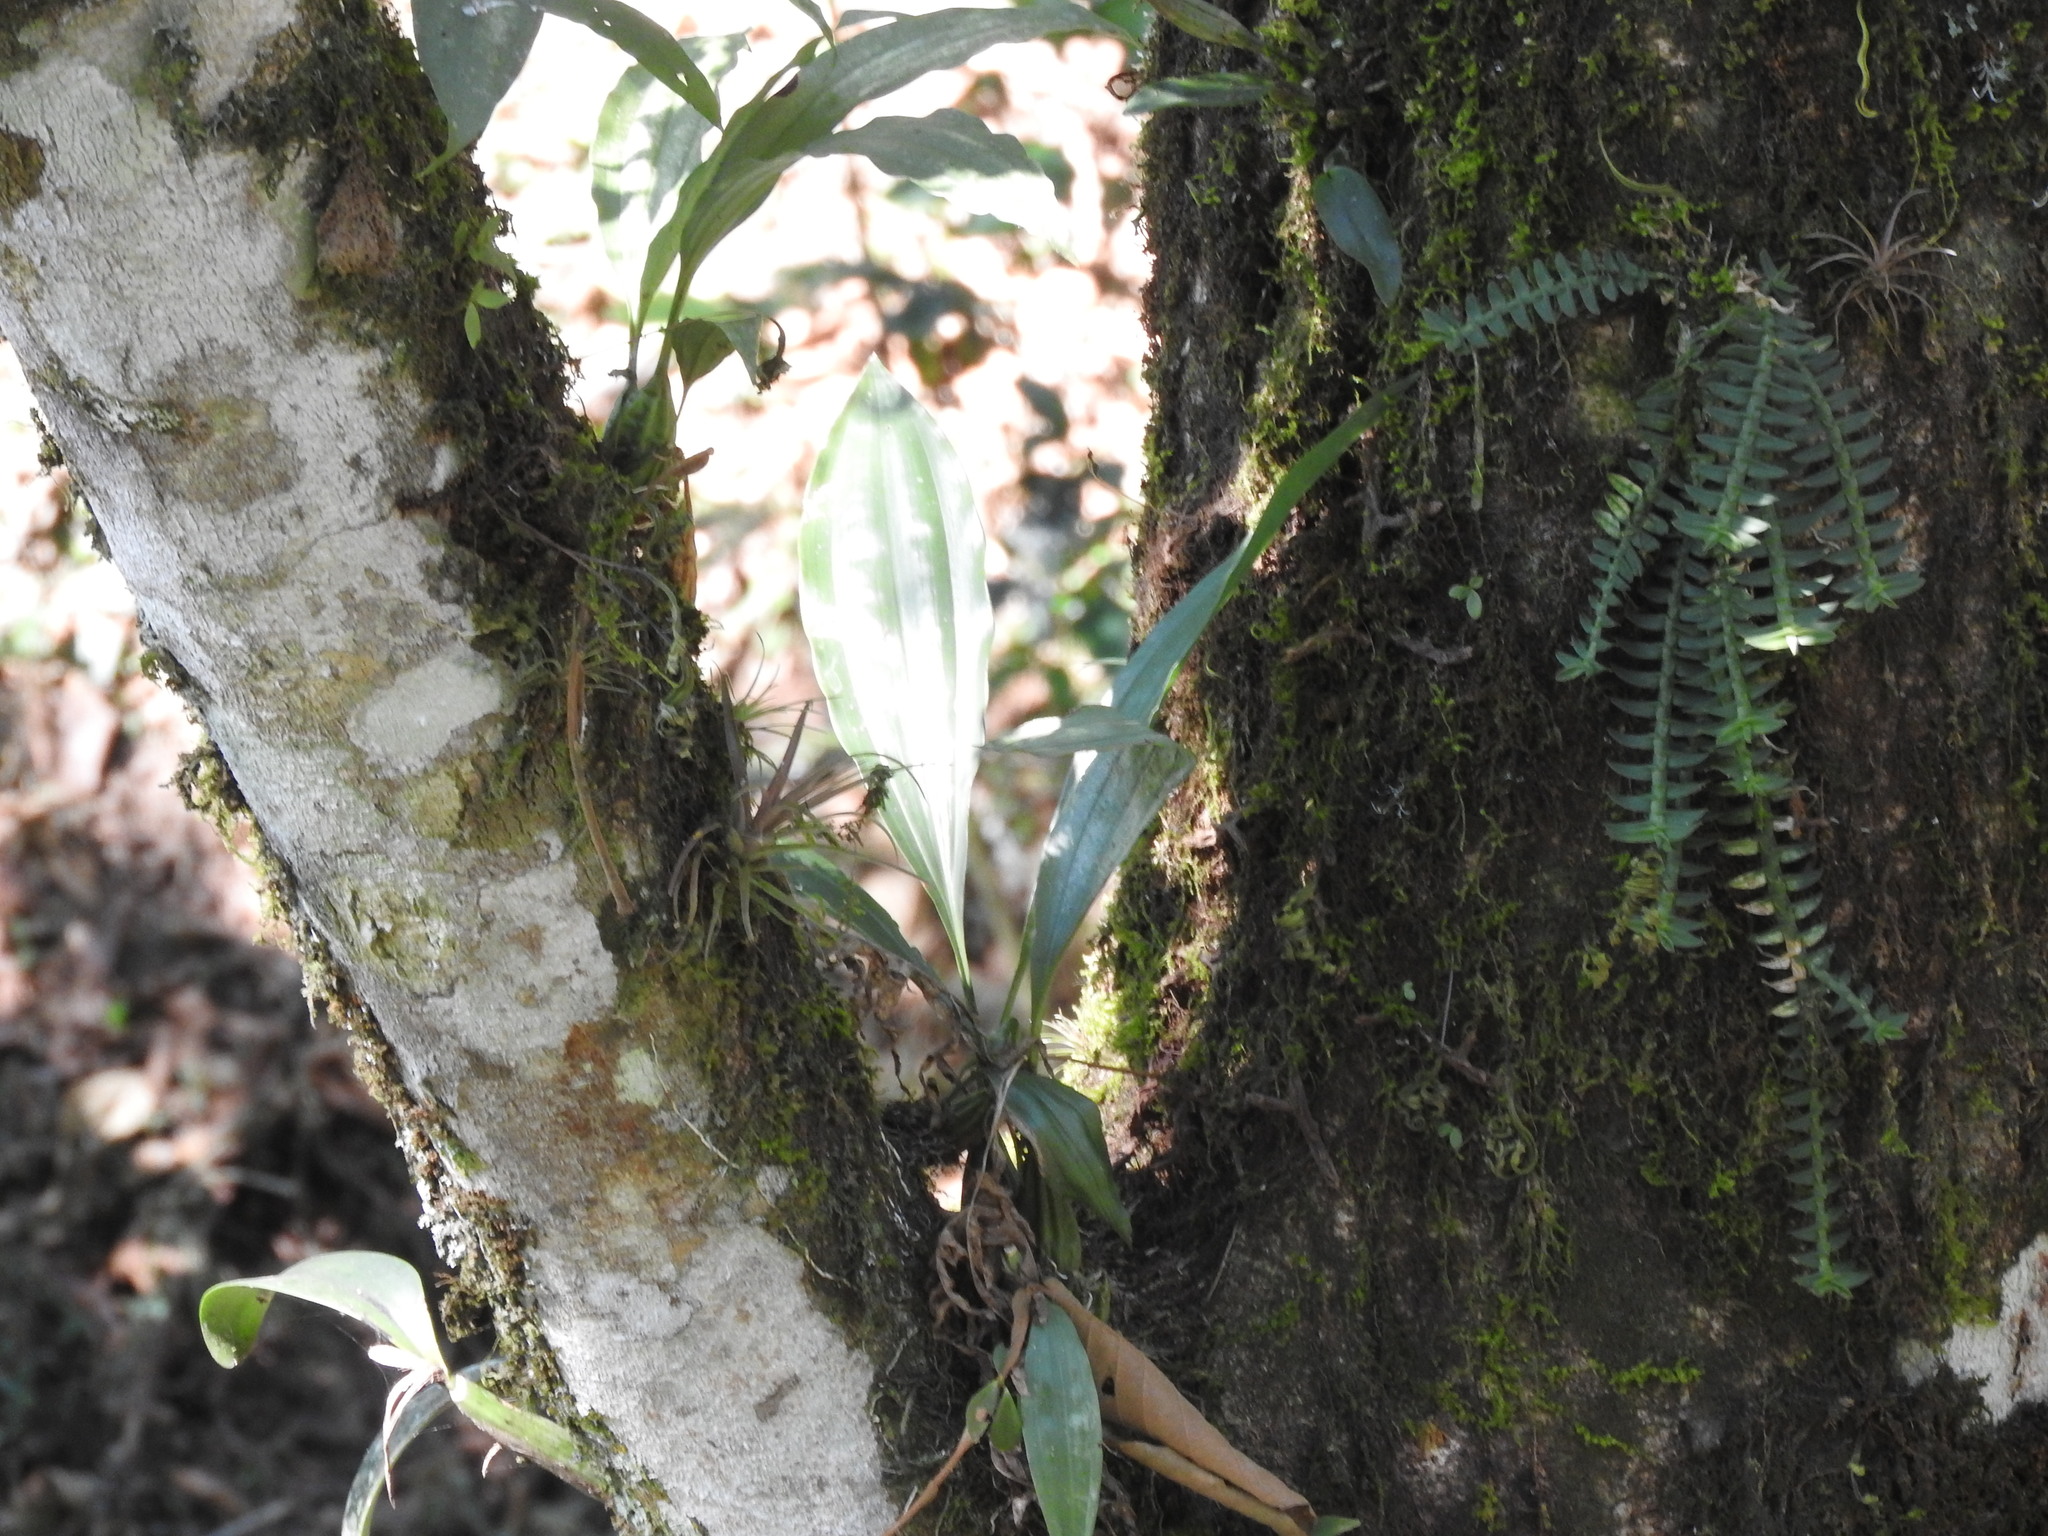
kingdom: Plantae
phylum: Tracheophyta
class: Liliopsida
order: Asparagales
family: Orchidaceae
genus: Stanhopea
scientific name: Stanhopea saccata
